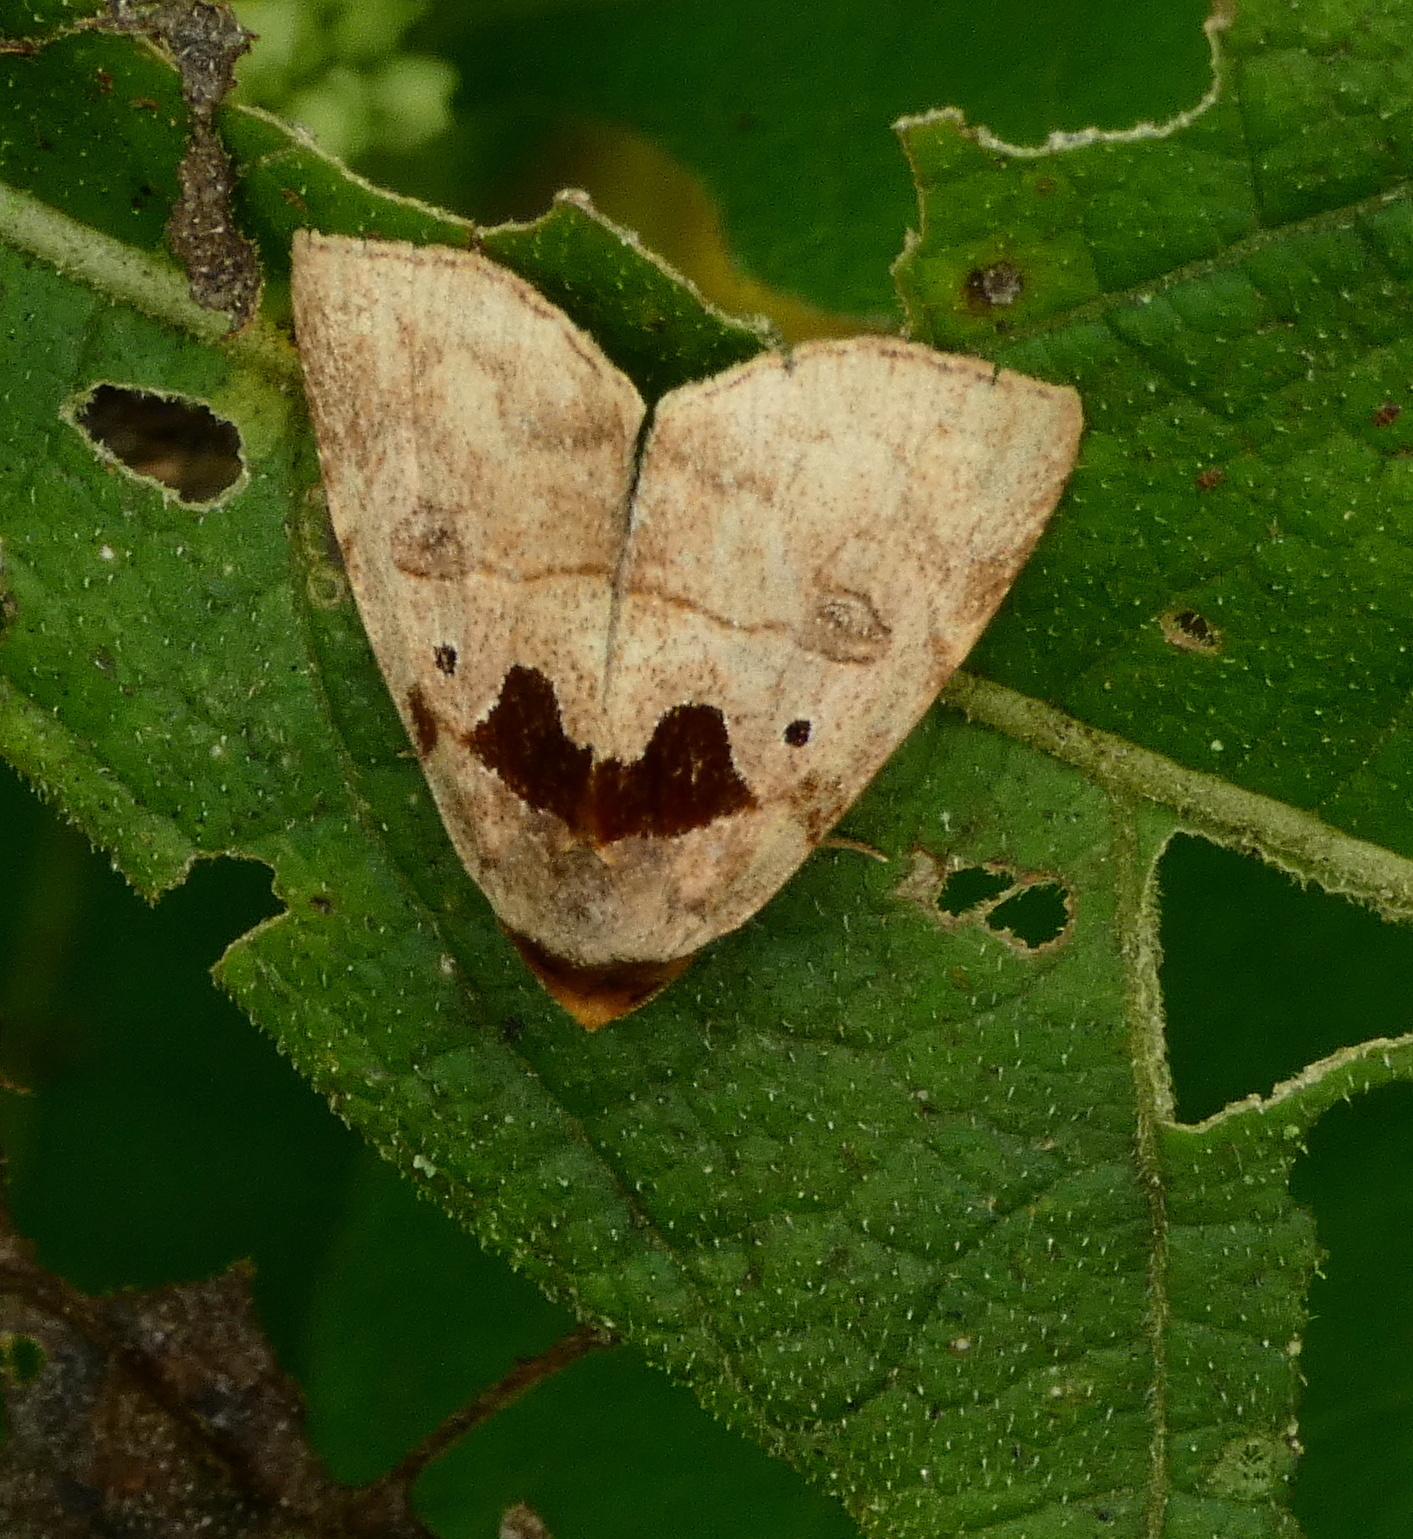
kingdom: Animalia
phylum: Arthropoda
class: Insecta
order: Lepidoptera
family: Erebidae
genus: Lephana
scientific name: Lephana muffula
